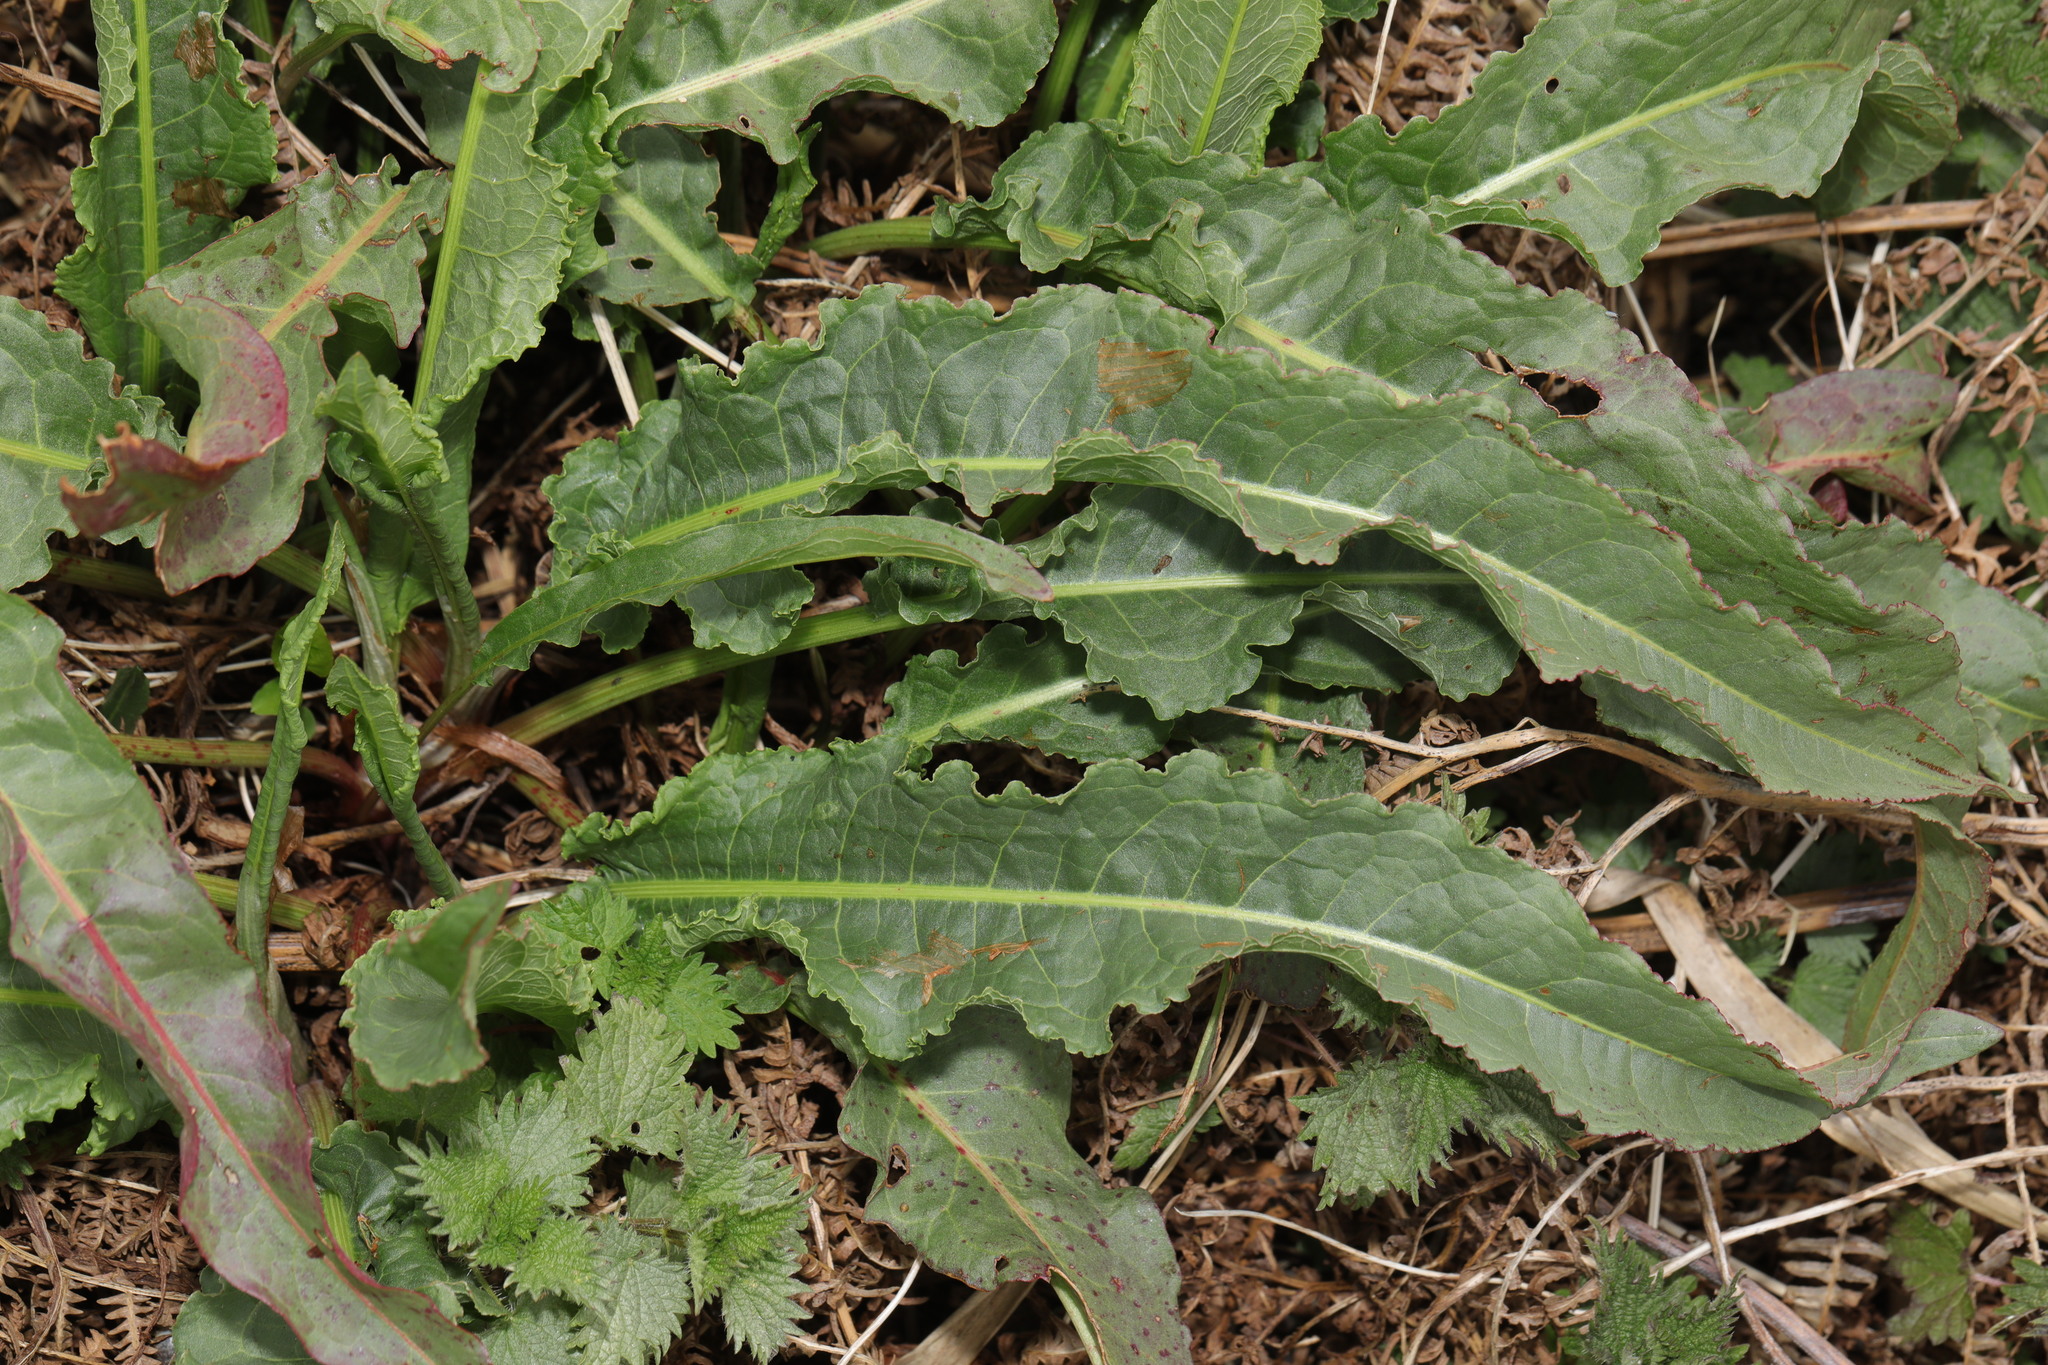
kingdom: Plantae
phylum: Tracheophyta
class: Magnoliopsida
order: Caryophyllales
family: Polygonaceae
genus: Rumex
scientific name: Rumex crispus
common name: Curled dock
